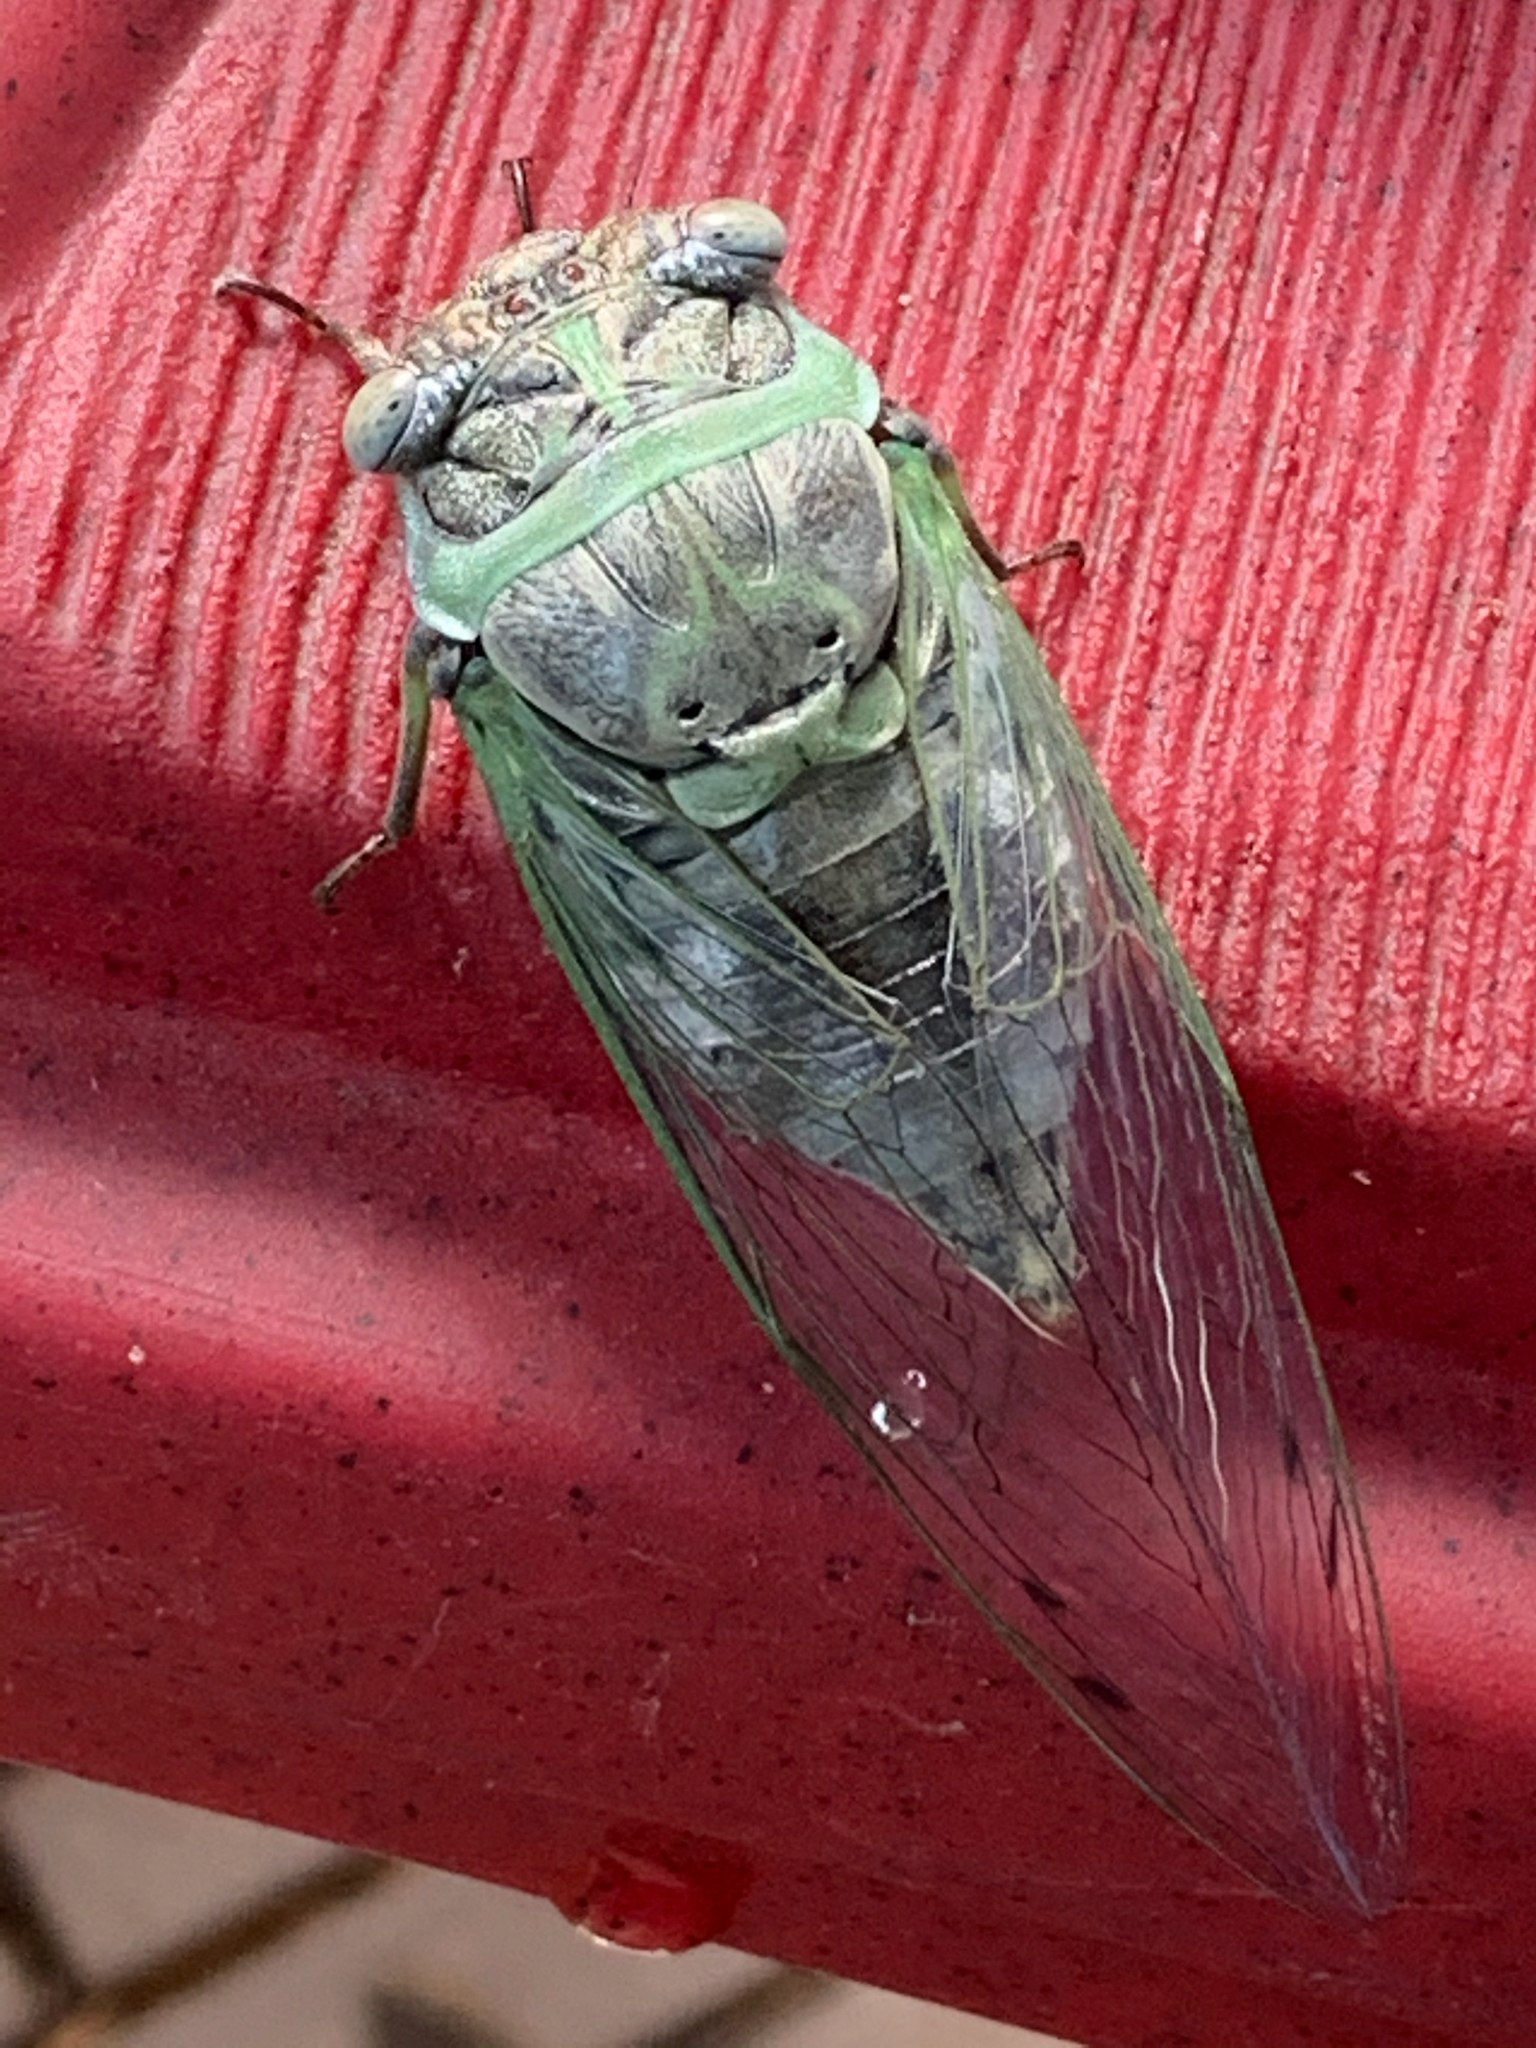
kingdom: Animalia
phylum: Arthropoda
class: Insecta
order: Hemiptera
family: Cicadidae
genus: Diceroprocta
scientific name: Diceroprocta grossa
